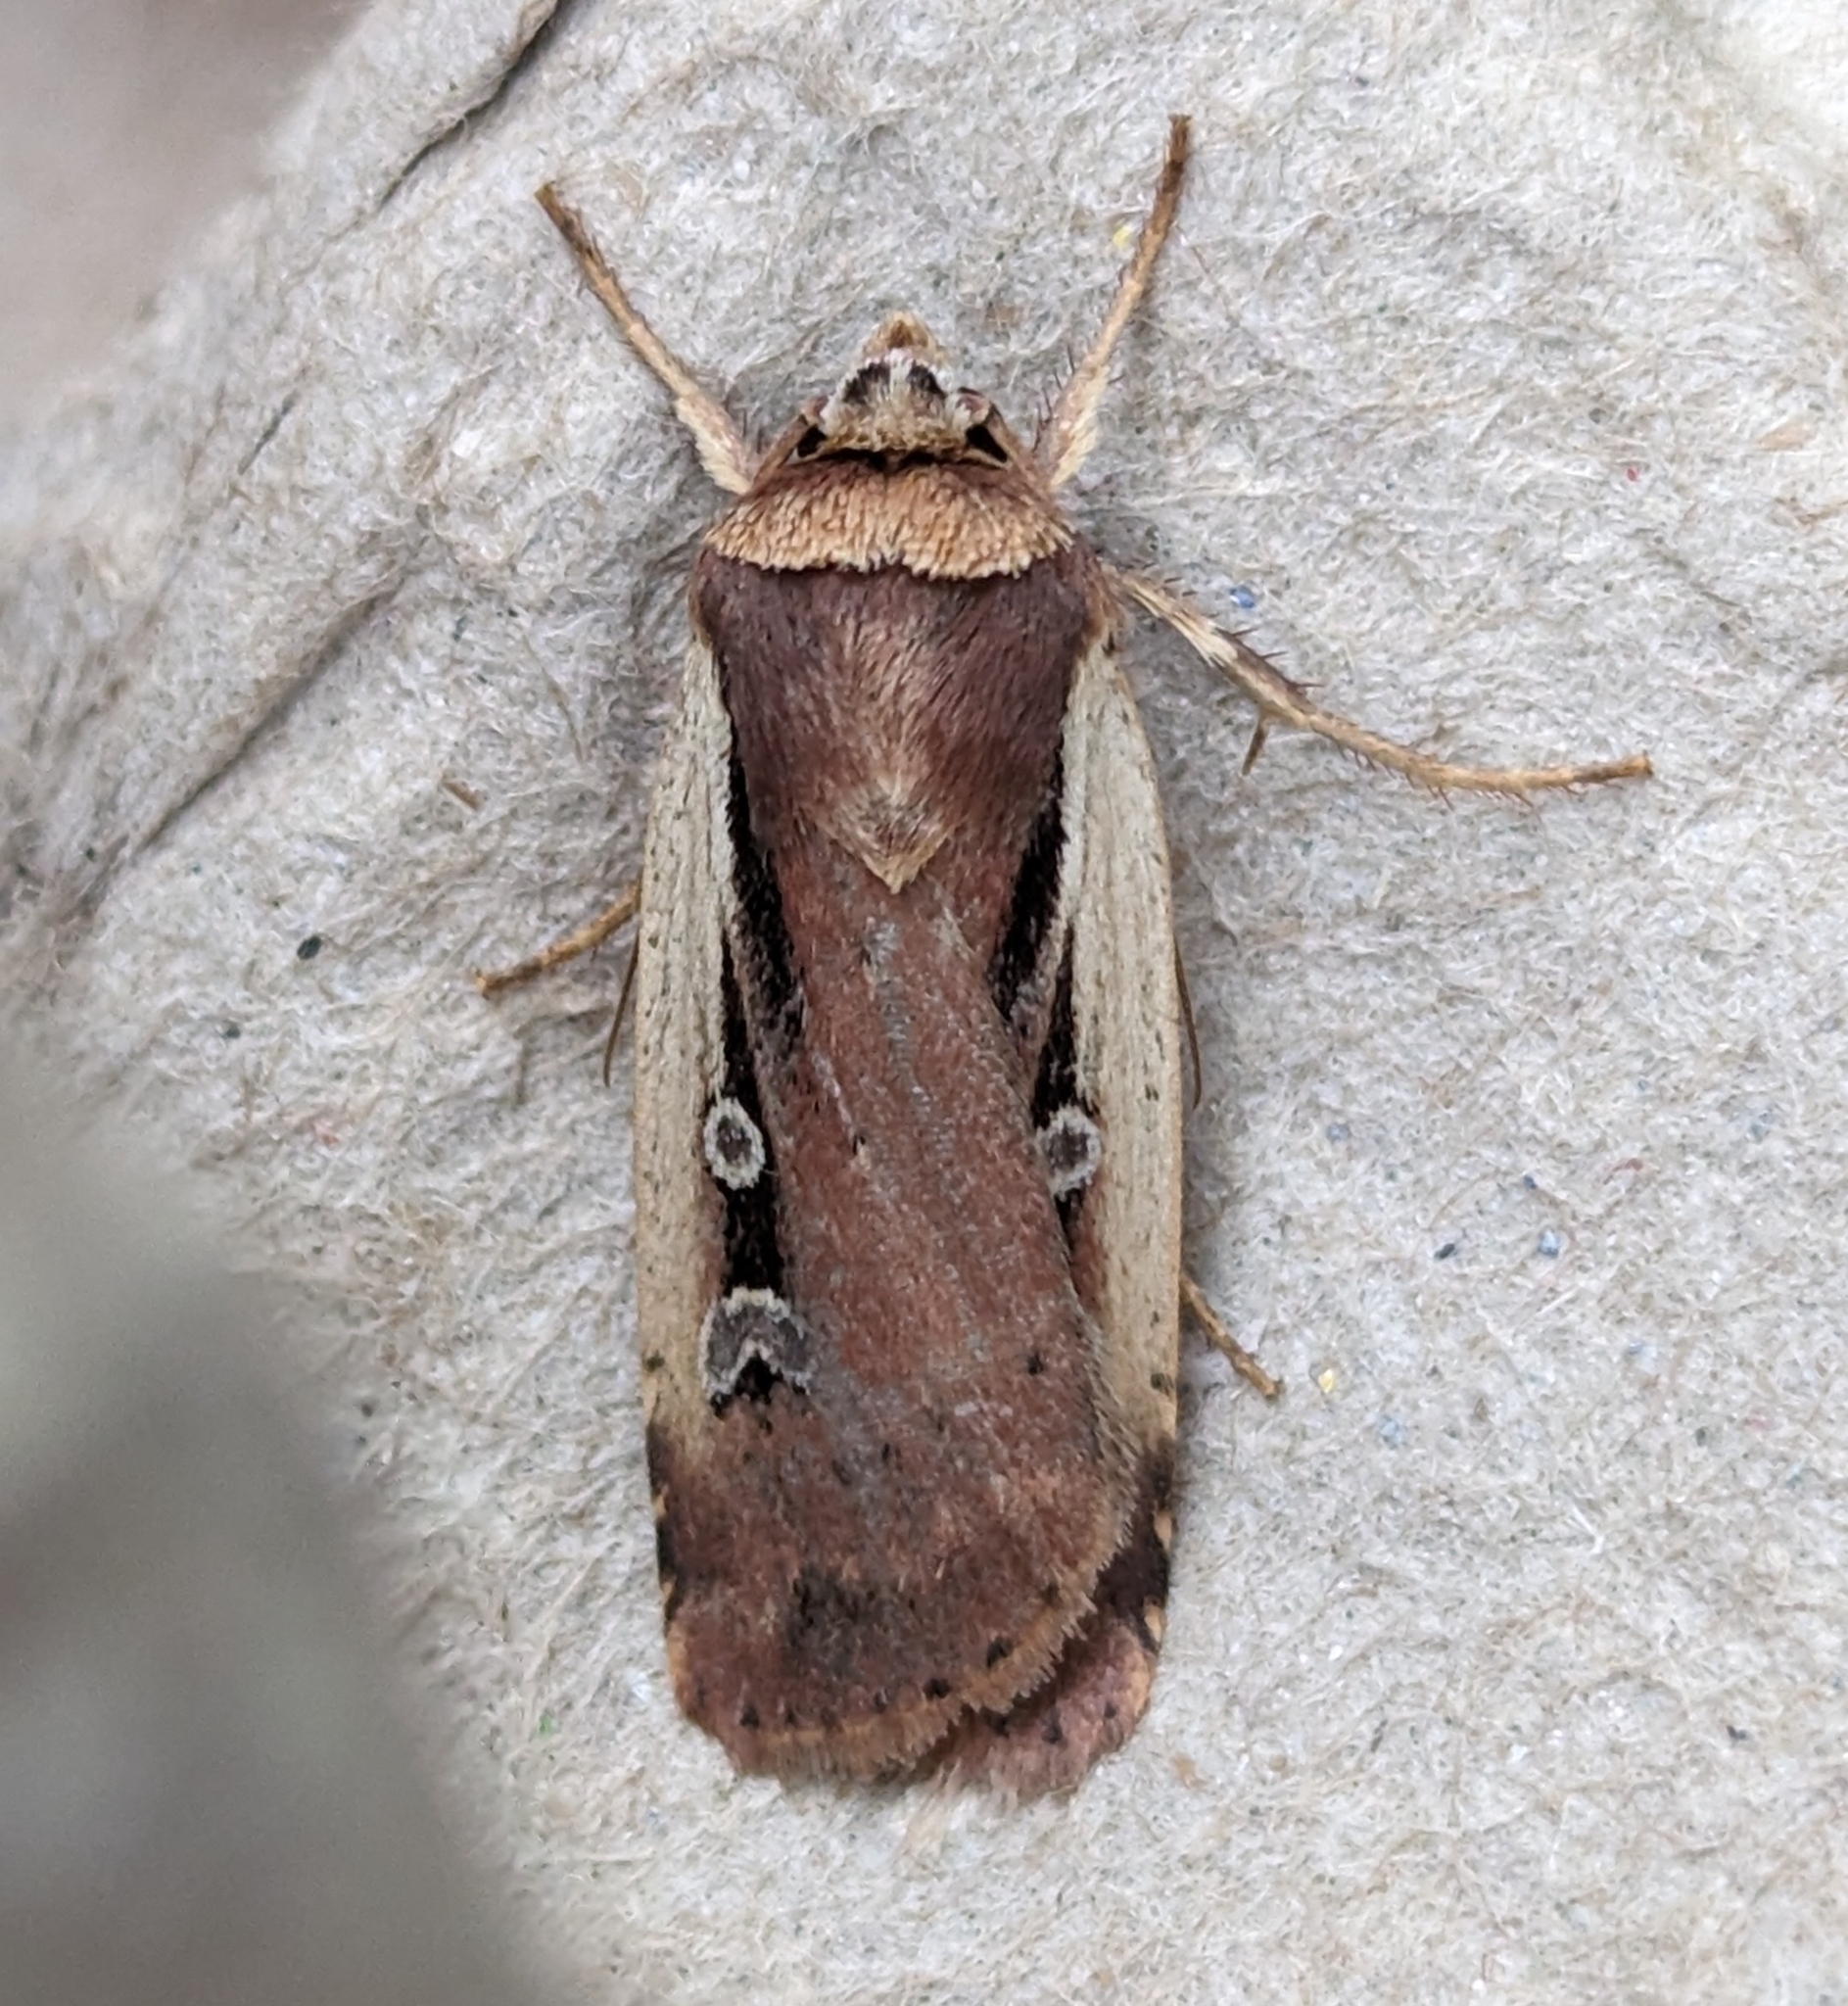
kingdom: Animalia
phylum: Arthropoda
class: Insecta
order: Lepidoptera
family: Noctuidae
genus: Ochropleura
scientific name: Ochropleura implecta
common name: Flame-shouldered dart
